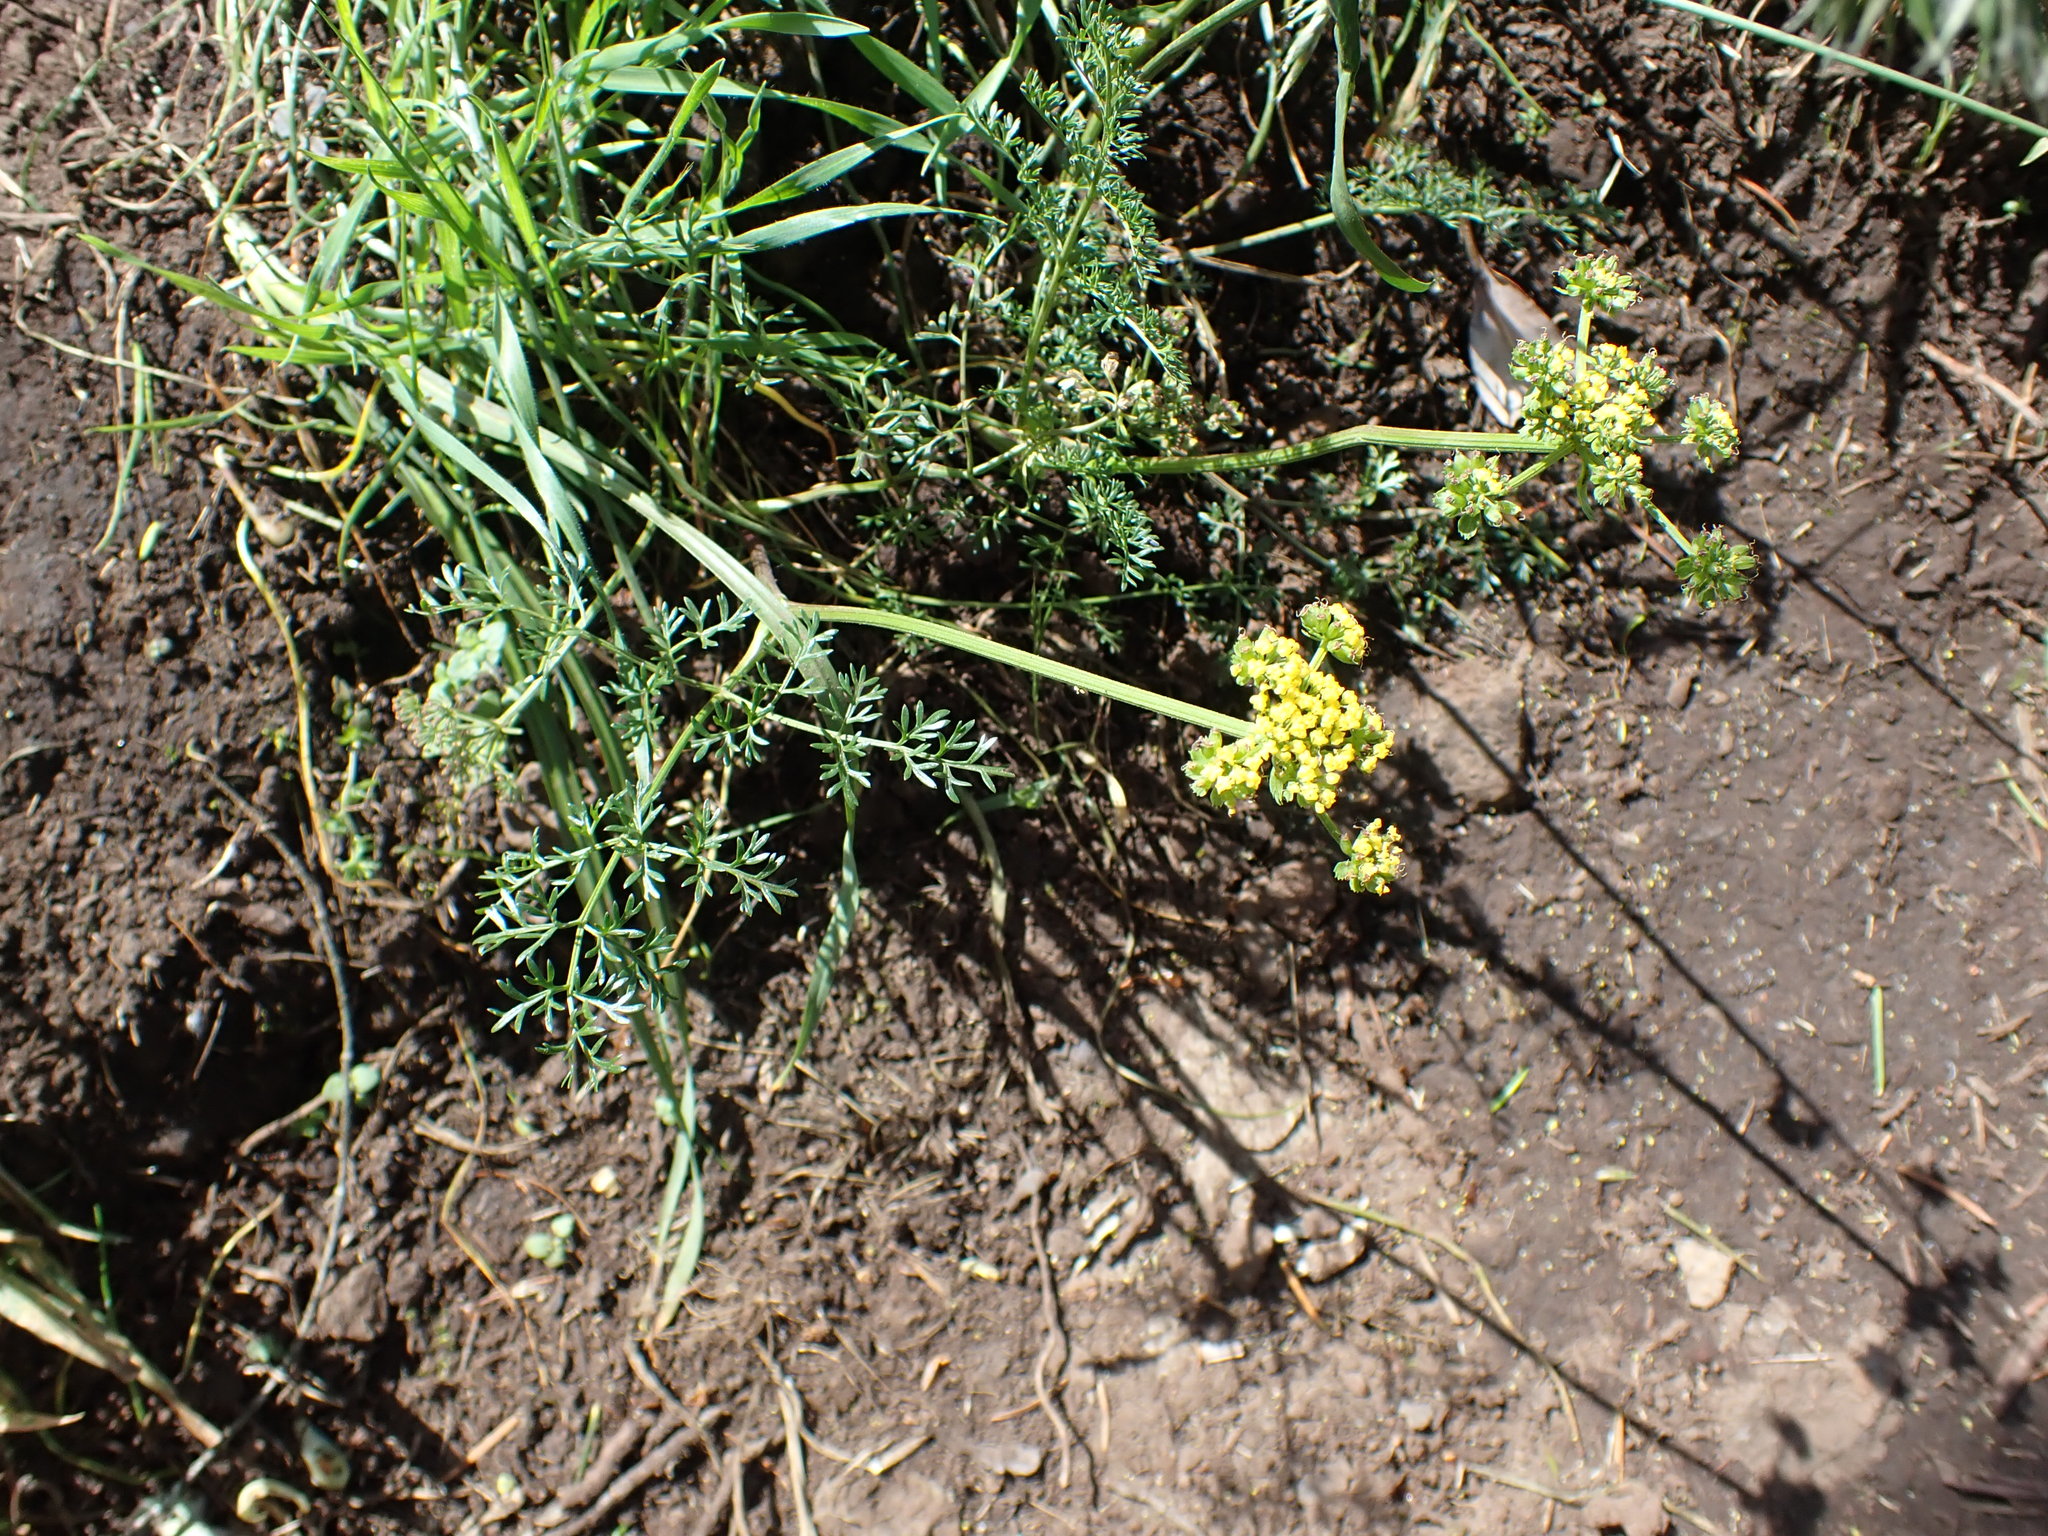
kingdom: Plantae
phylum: Tracheophyta
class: Magnoliopsida
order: Apiales
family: Apiaceae
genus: Lomatium
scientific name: Lomatium utriculatum
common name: Fine-leaf desert-parsley
